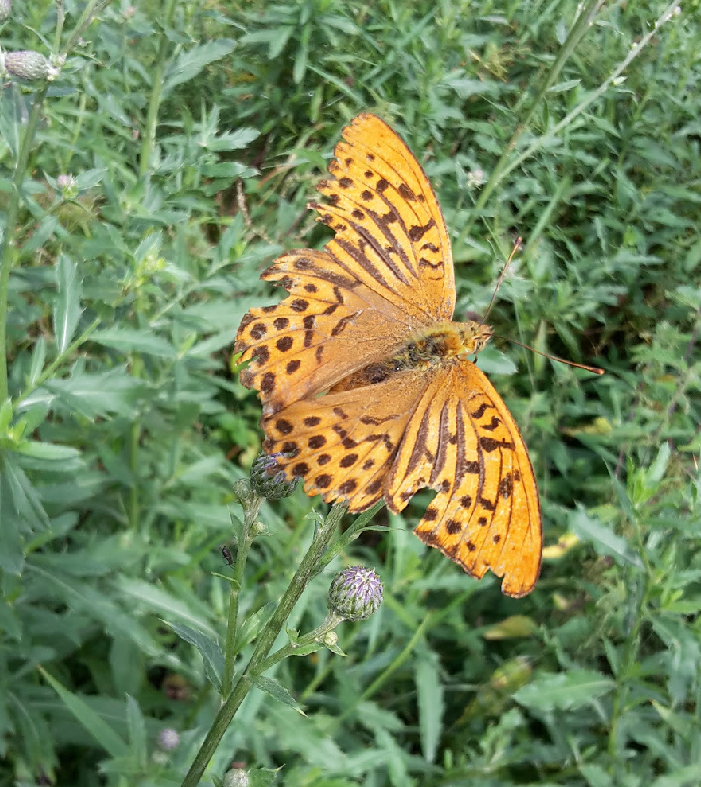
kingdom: Animalia
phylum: Arthropoda
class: Insecta
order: Lepidoptera
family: Nymphalidae
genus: Argynnis
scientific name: Argynnis paphia
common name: Silver-washed fritillary
